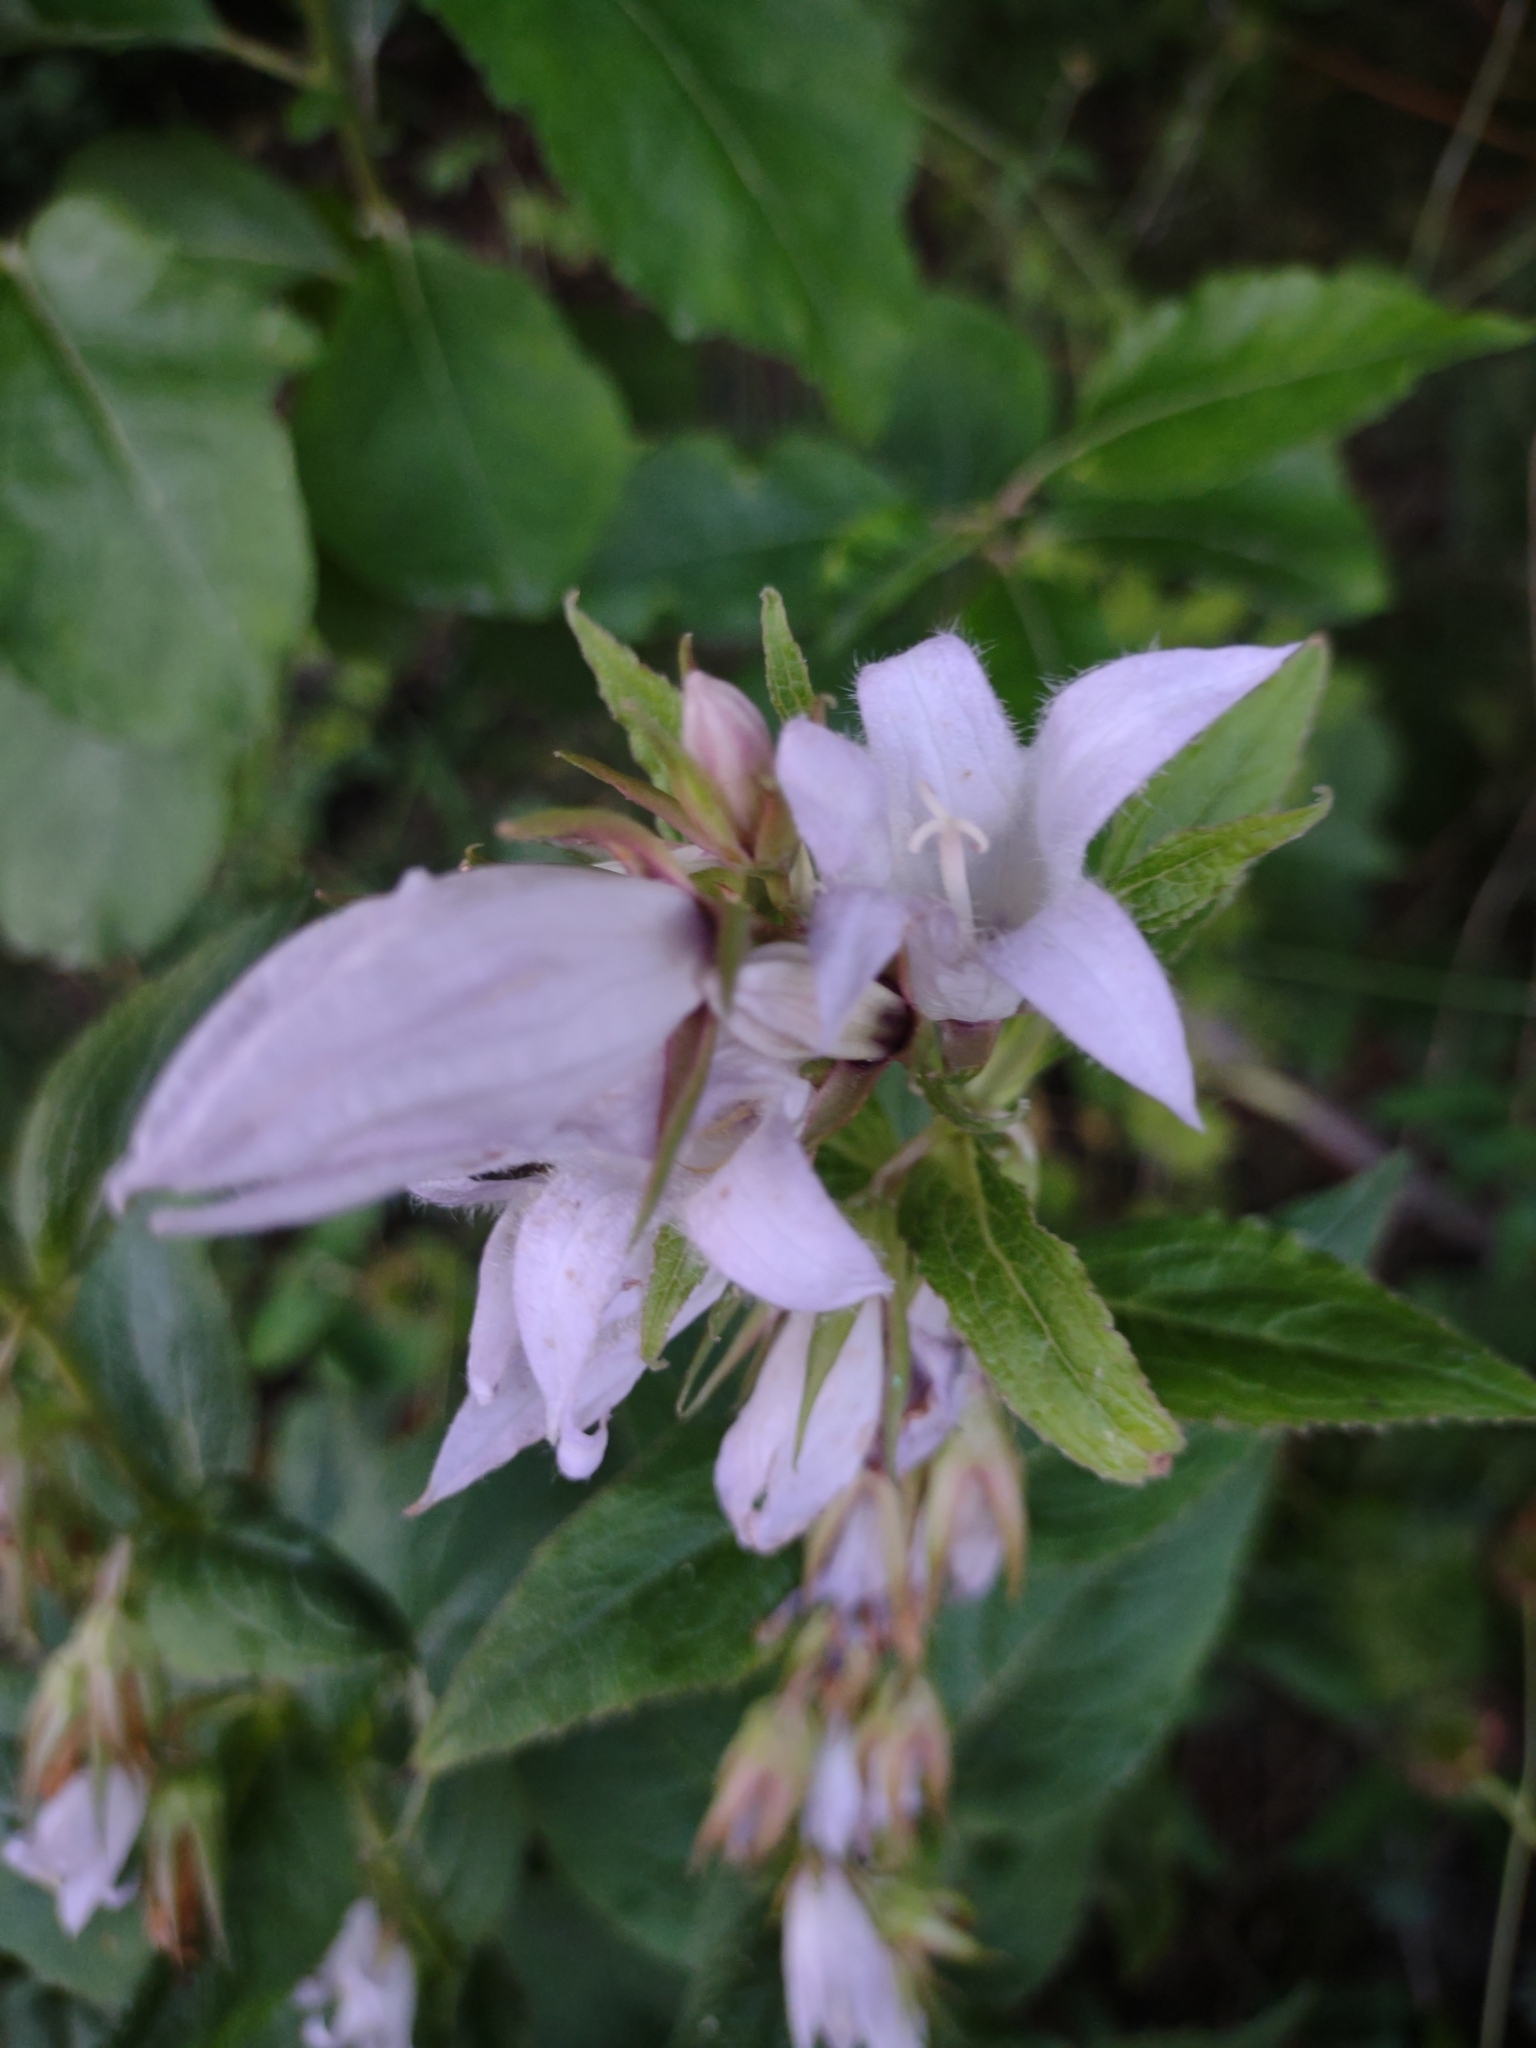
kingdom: Plantae
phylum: Tracheophyta
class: Magnoliopsida
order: Asterales
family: Campanulaceae
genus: Campanula
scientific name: Campanula latifolia
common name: Giant bellflower
